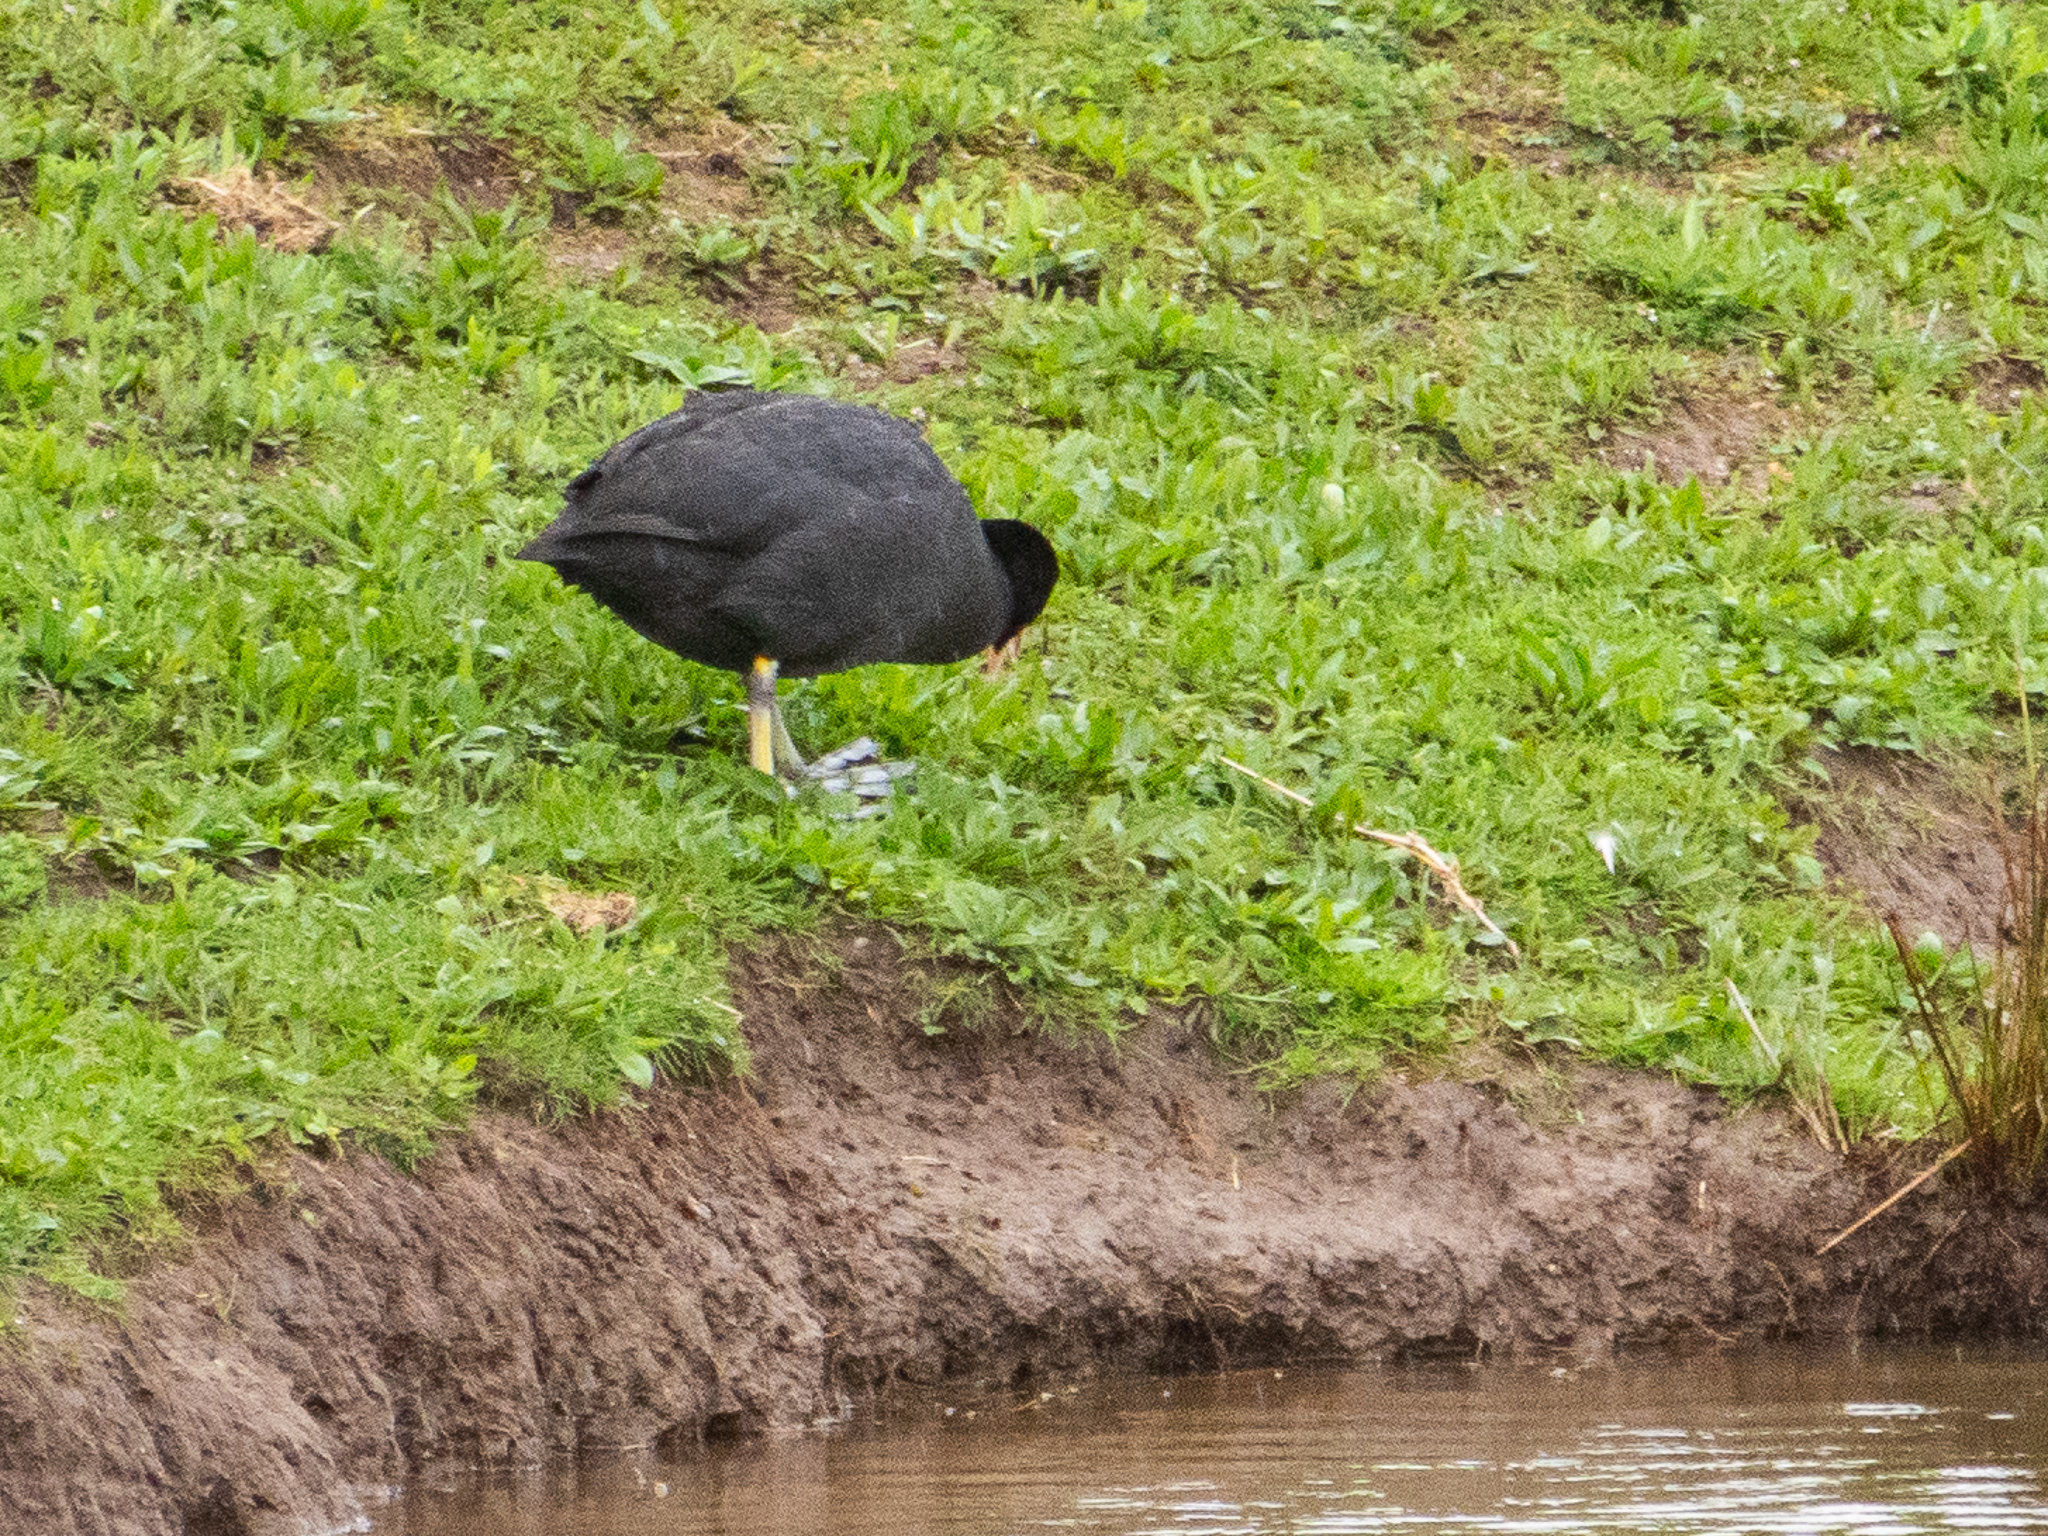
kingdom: Animalia
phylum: Chordata
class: Aves
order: Gruiformes
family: Rallidae
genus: Fulica
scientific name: Fulica atra
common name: Eurasian coot
